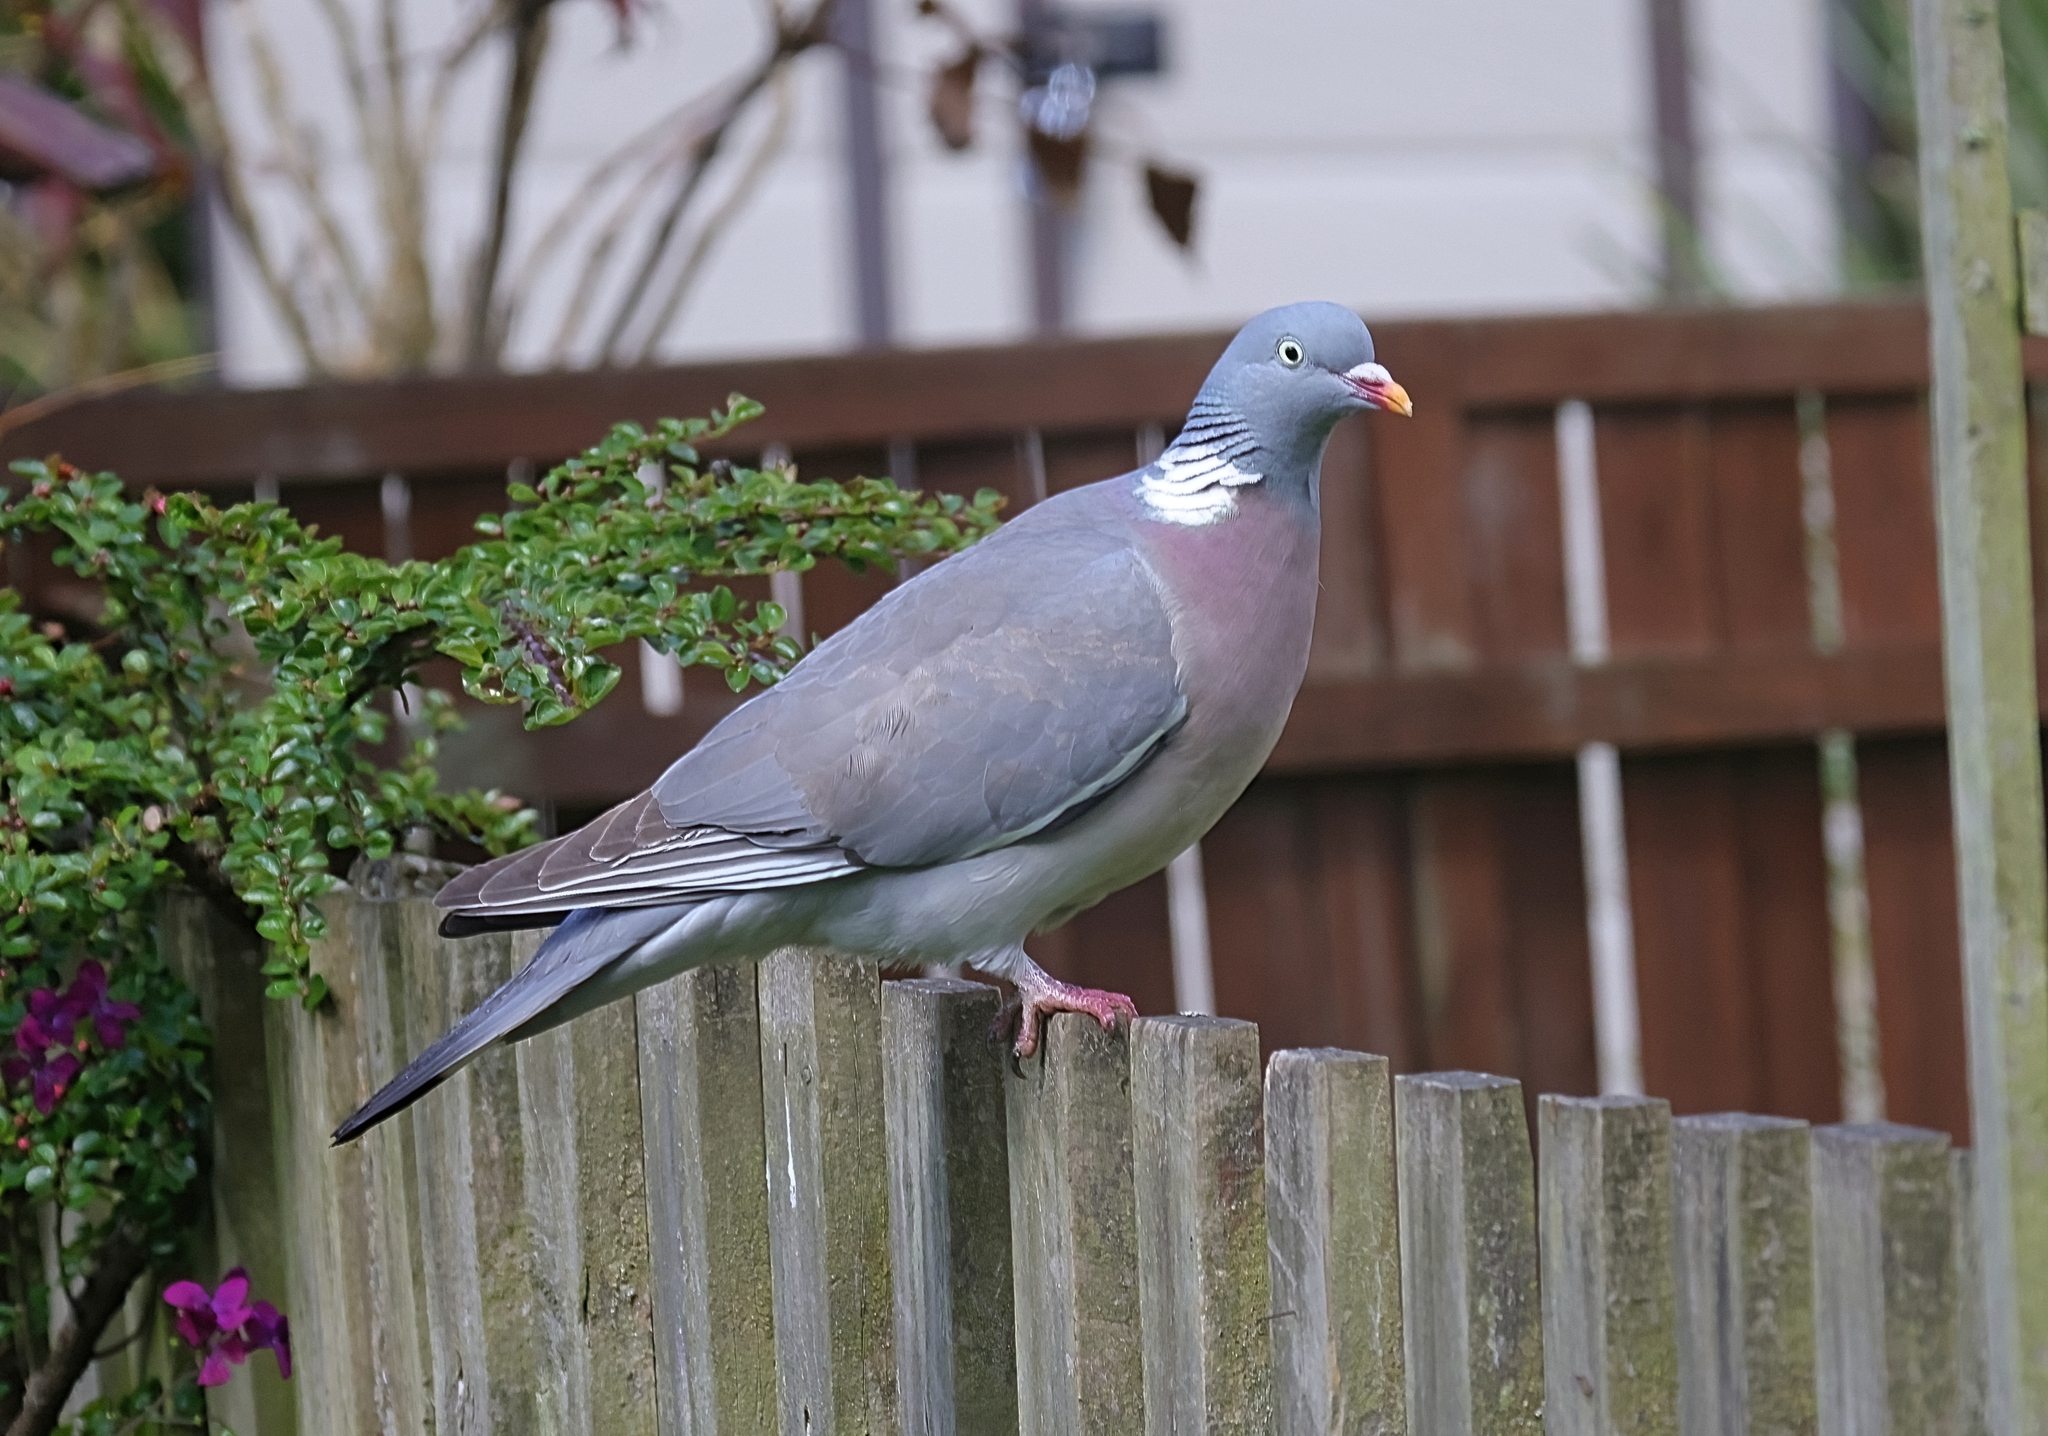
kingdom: Animalia
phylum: Chordata
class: Aves
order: Columbiformes
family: Columbidae
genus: Columba
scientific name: Columba palumbus
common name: Common wood pigeon
